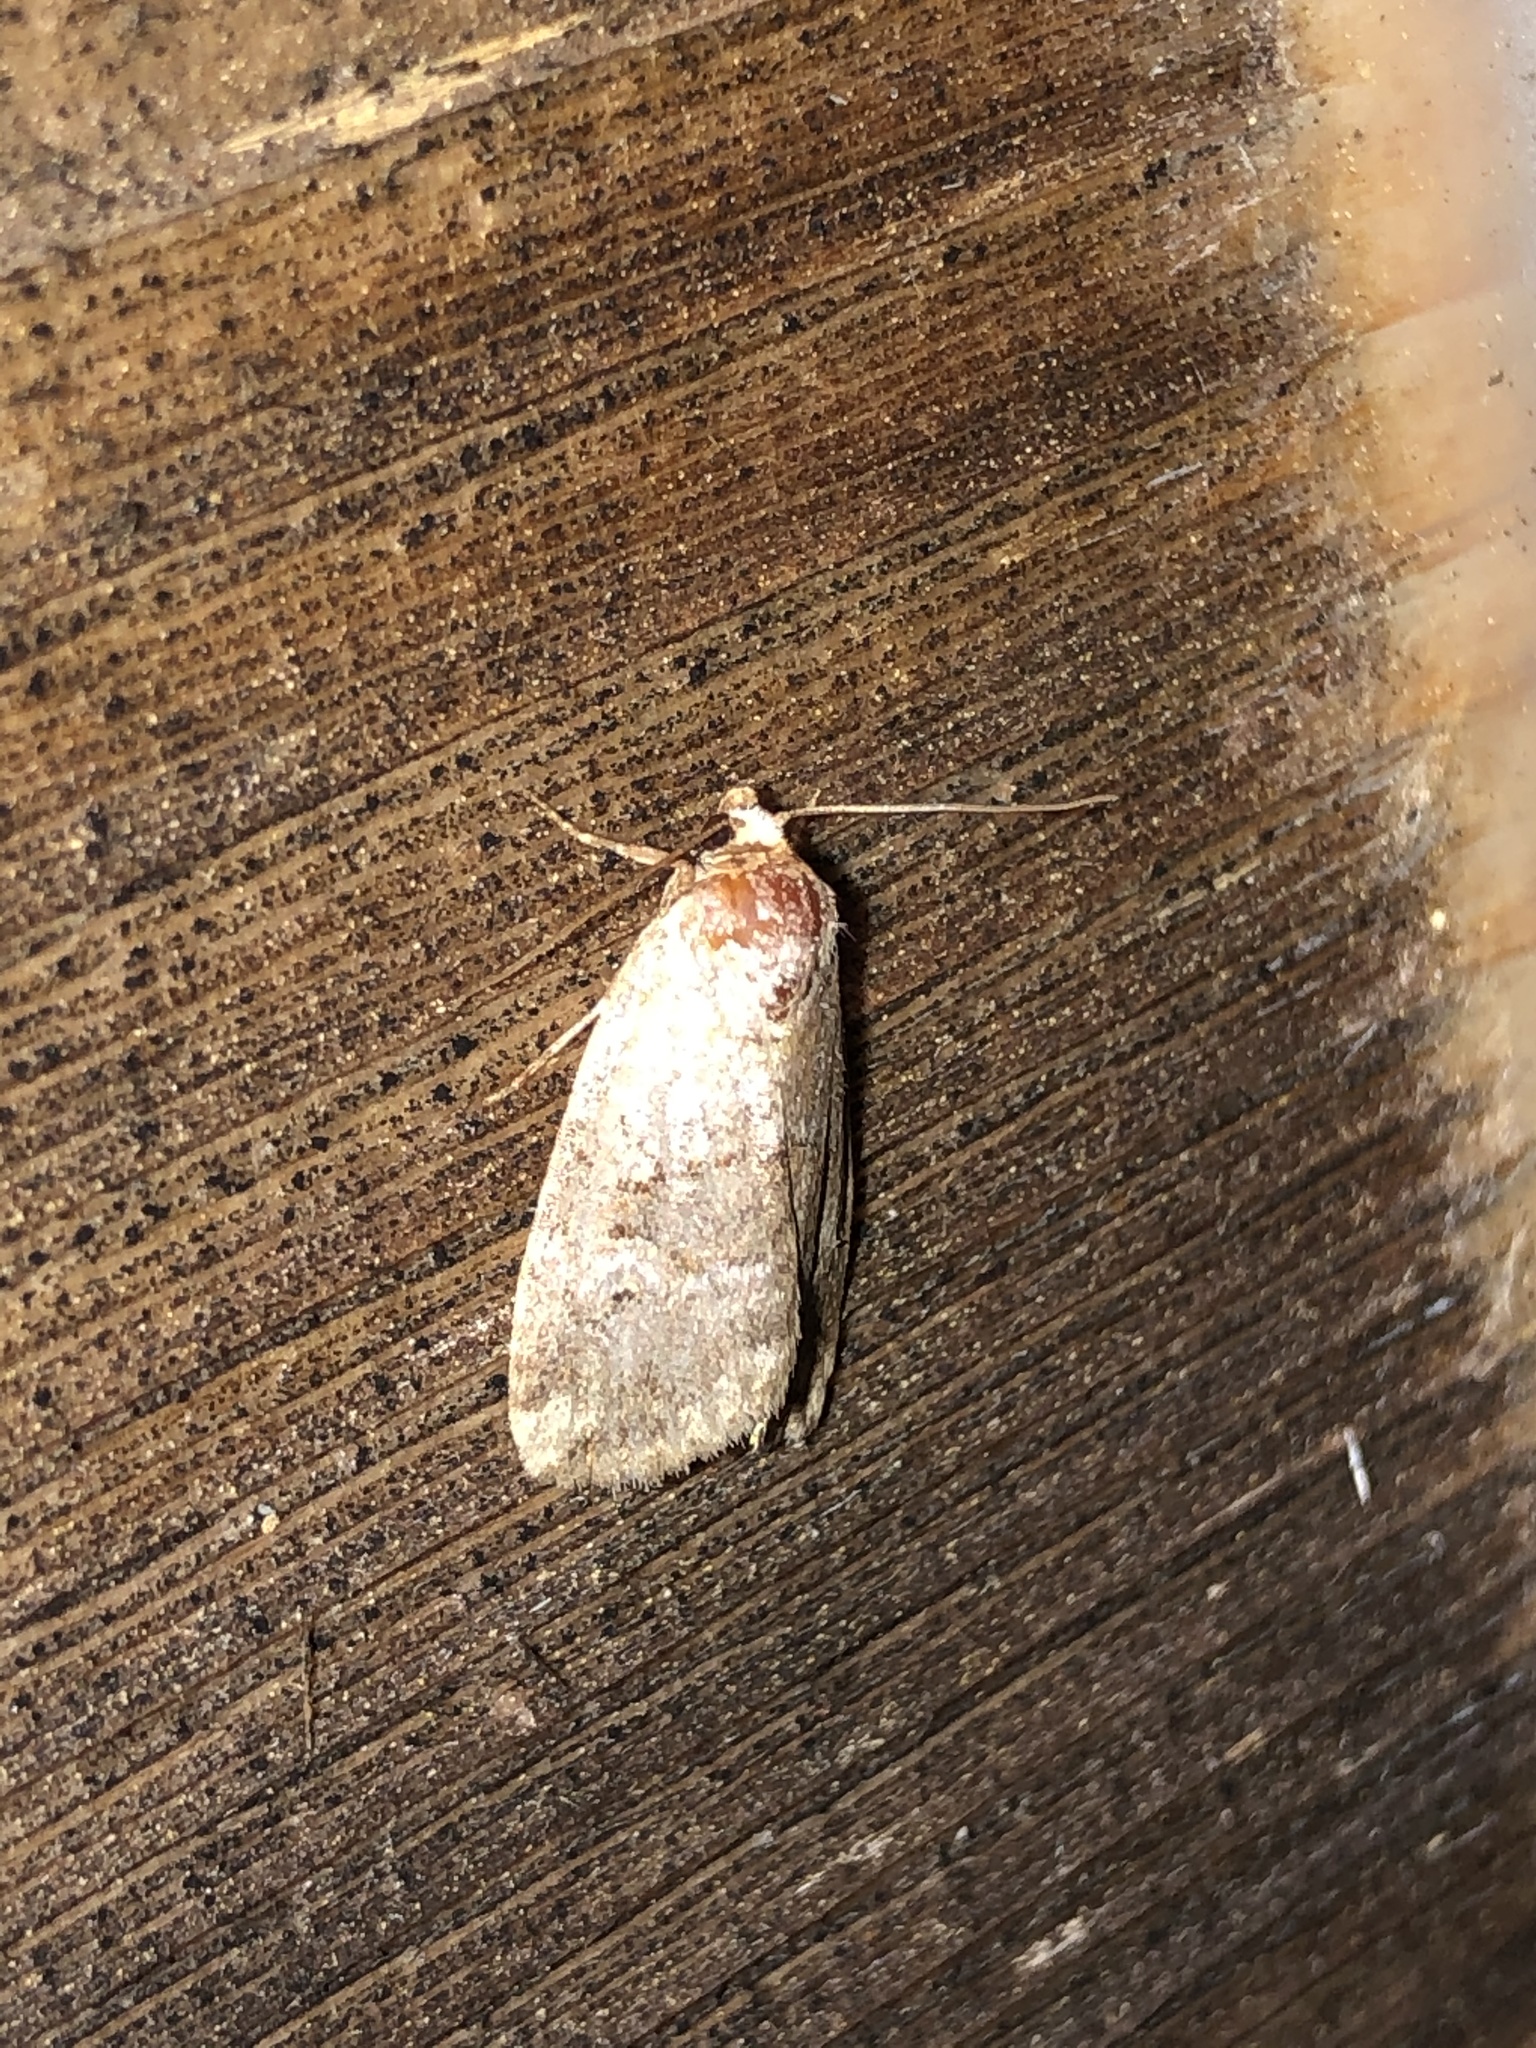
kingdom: Animalia
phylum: Arthropoda
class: Insecta
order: Lepidoptera
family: Noctuidae
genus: Elaphria
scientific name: Elaphria alapallida
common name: Pale-winged midget
